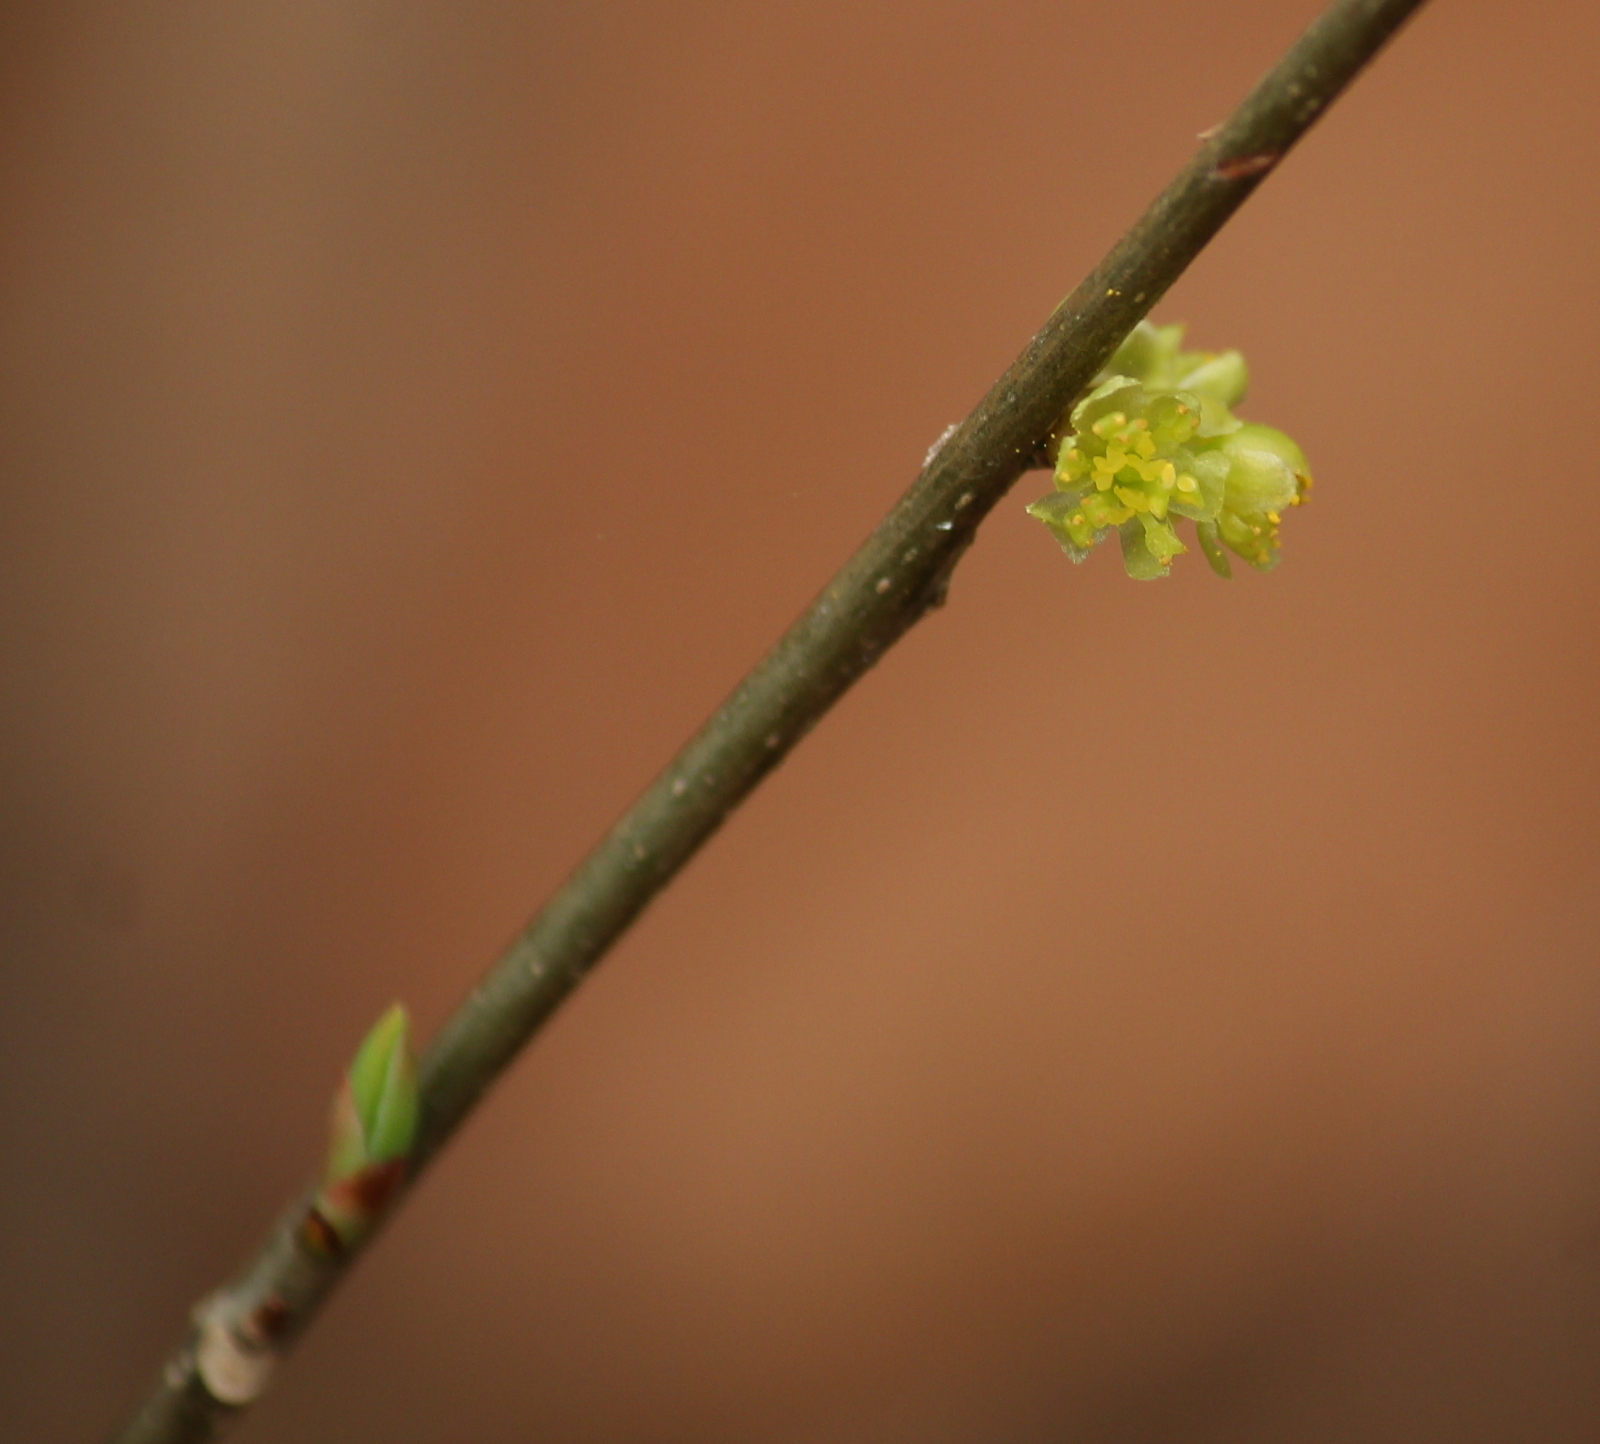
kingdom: Plantae
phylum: Tracheophyta
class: Magnoliopsida
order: Laurales
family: Lauraceae
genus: Lindera
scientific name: Lindera benzoin
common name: Spicebush
